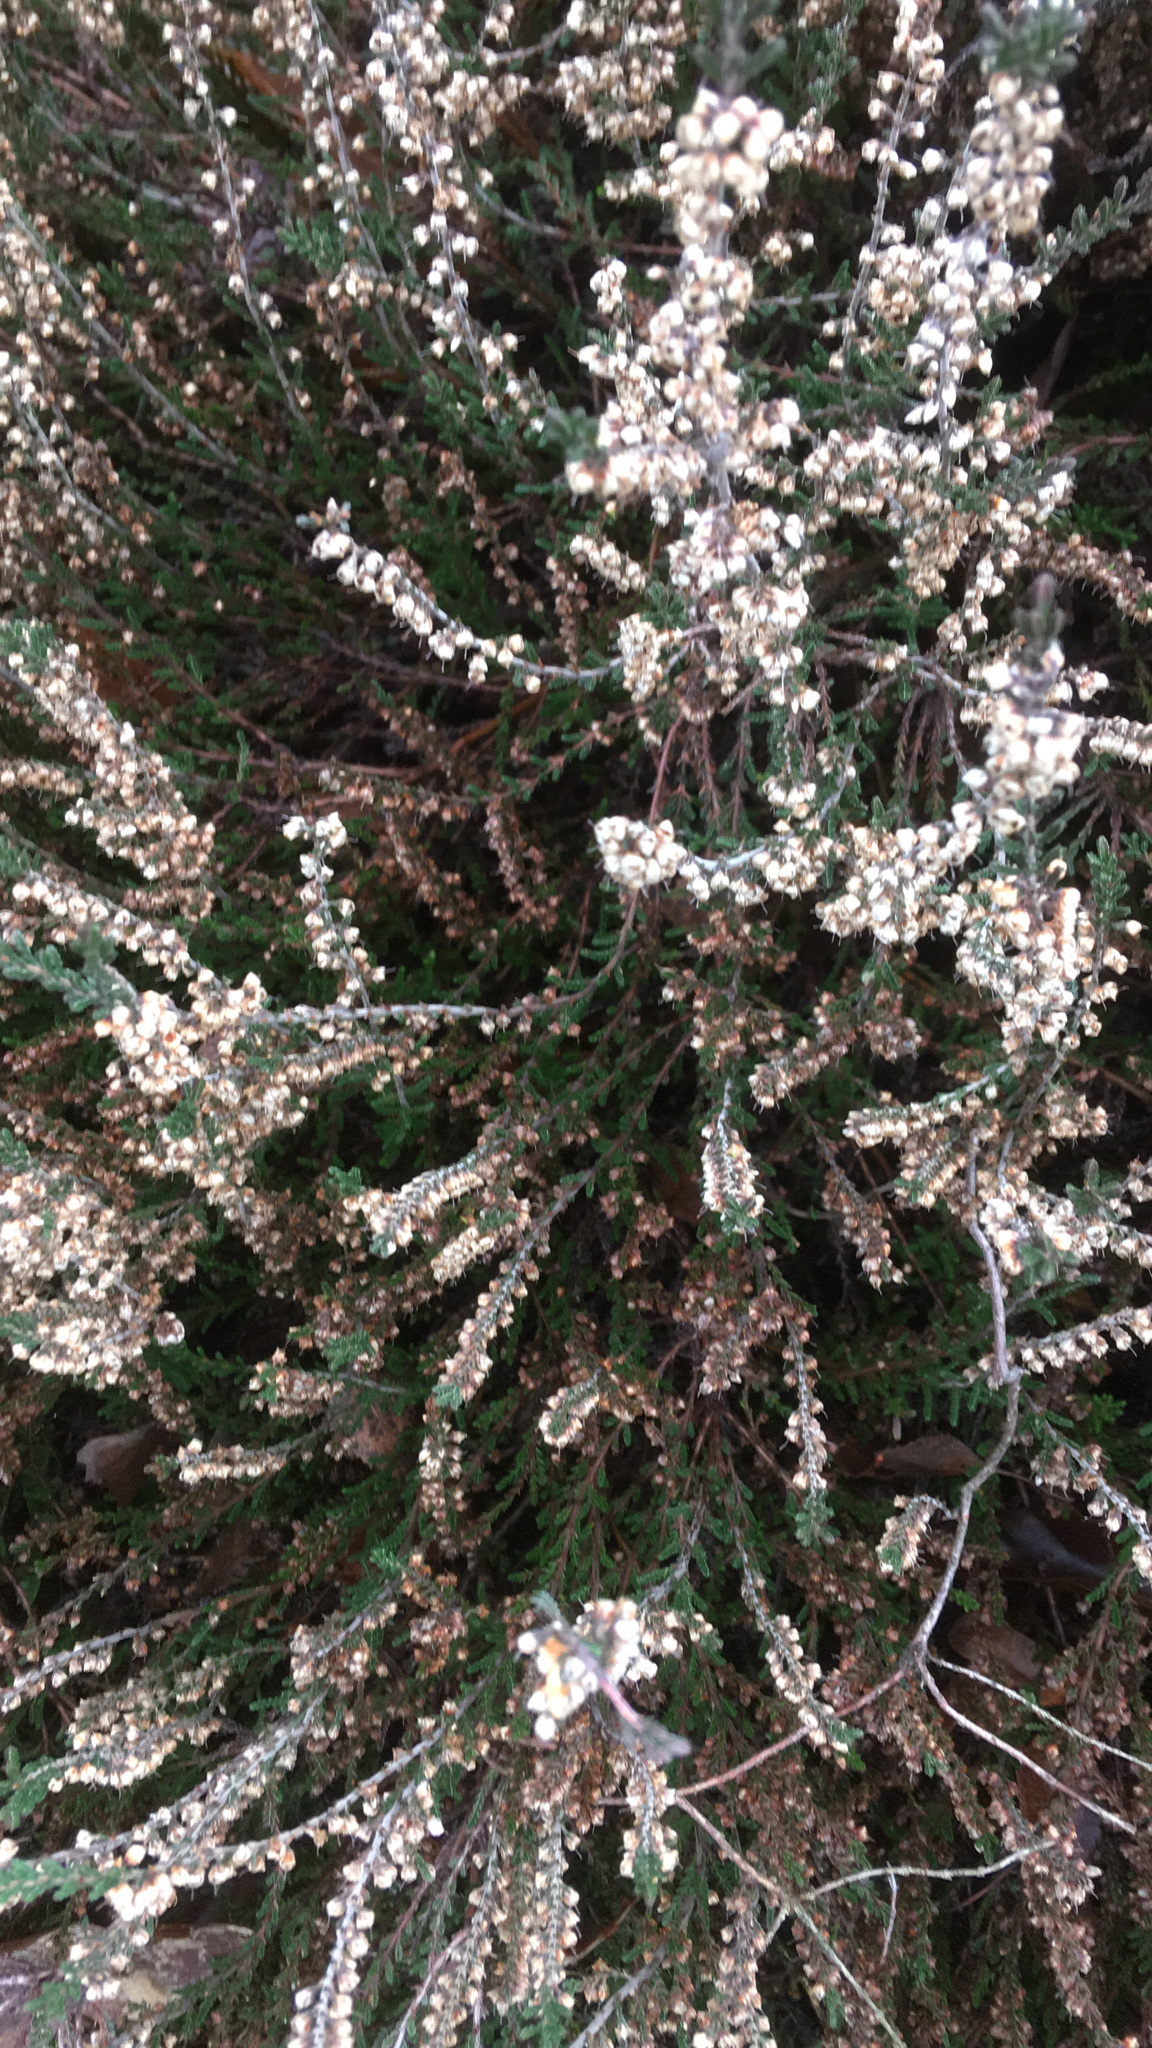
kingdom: Plantae
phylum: Tracheophyta
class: Magnoliopsida
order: Ericales
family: Ericaceae
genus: Calluna
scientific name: Calluna vulgaris
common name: Heather
